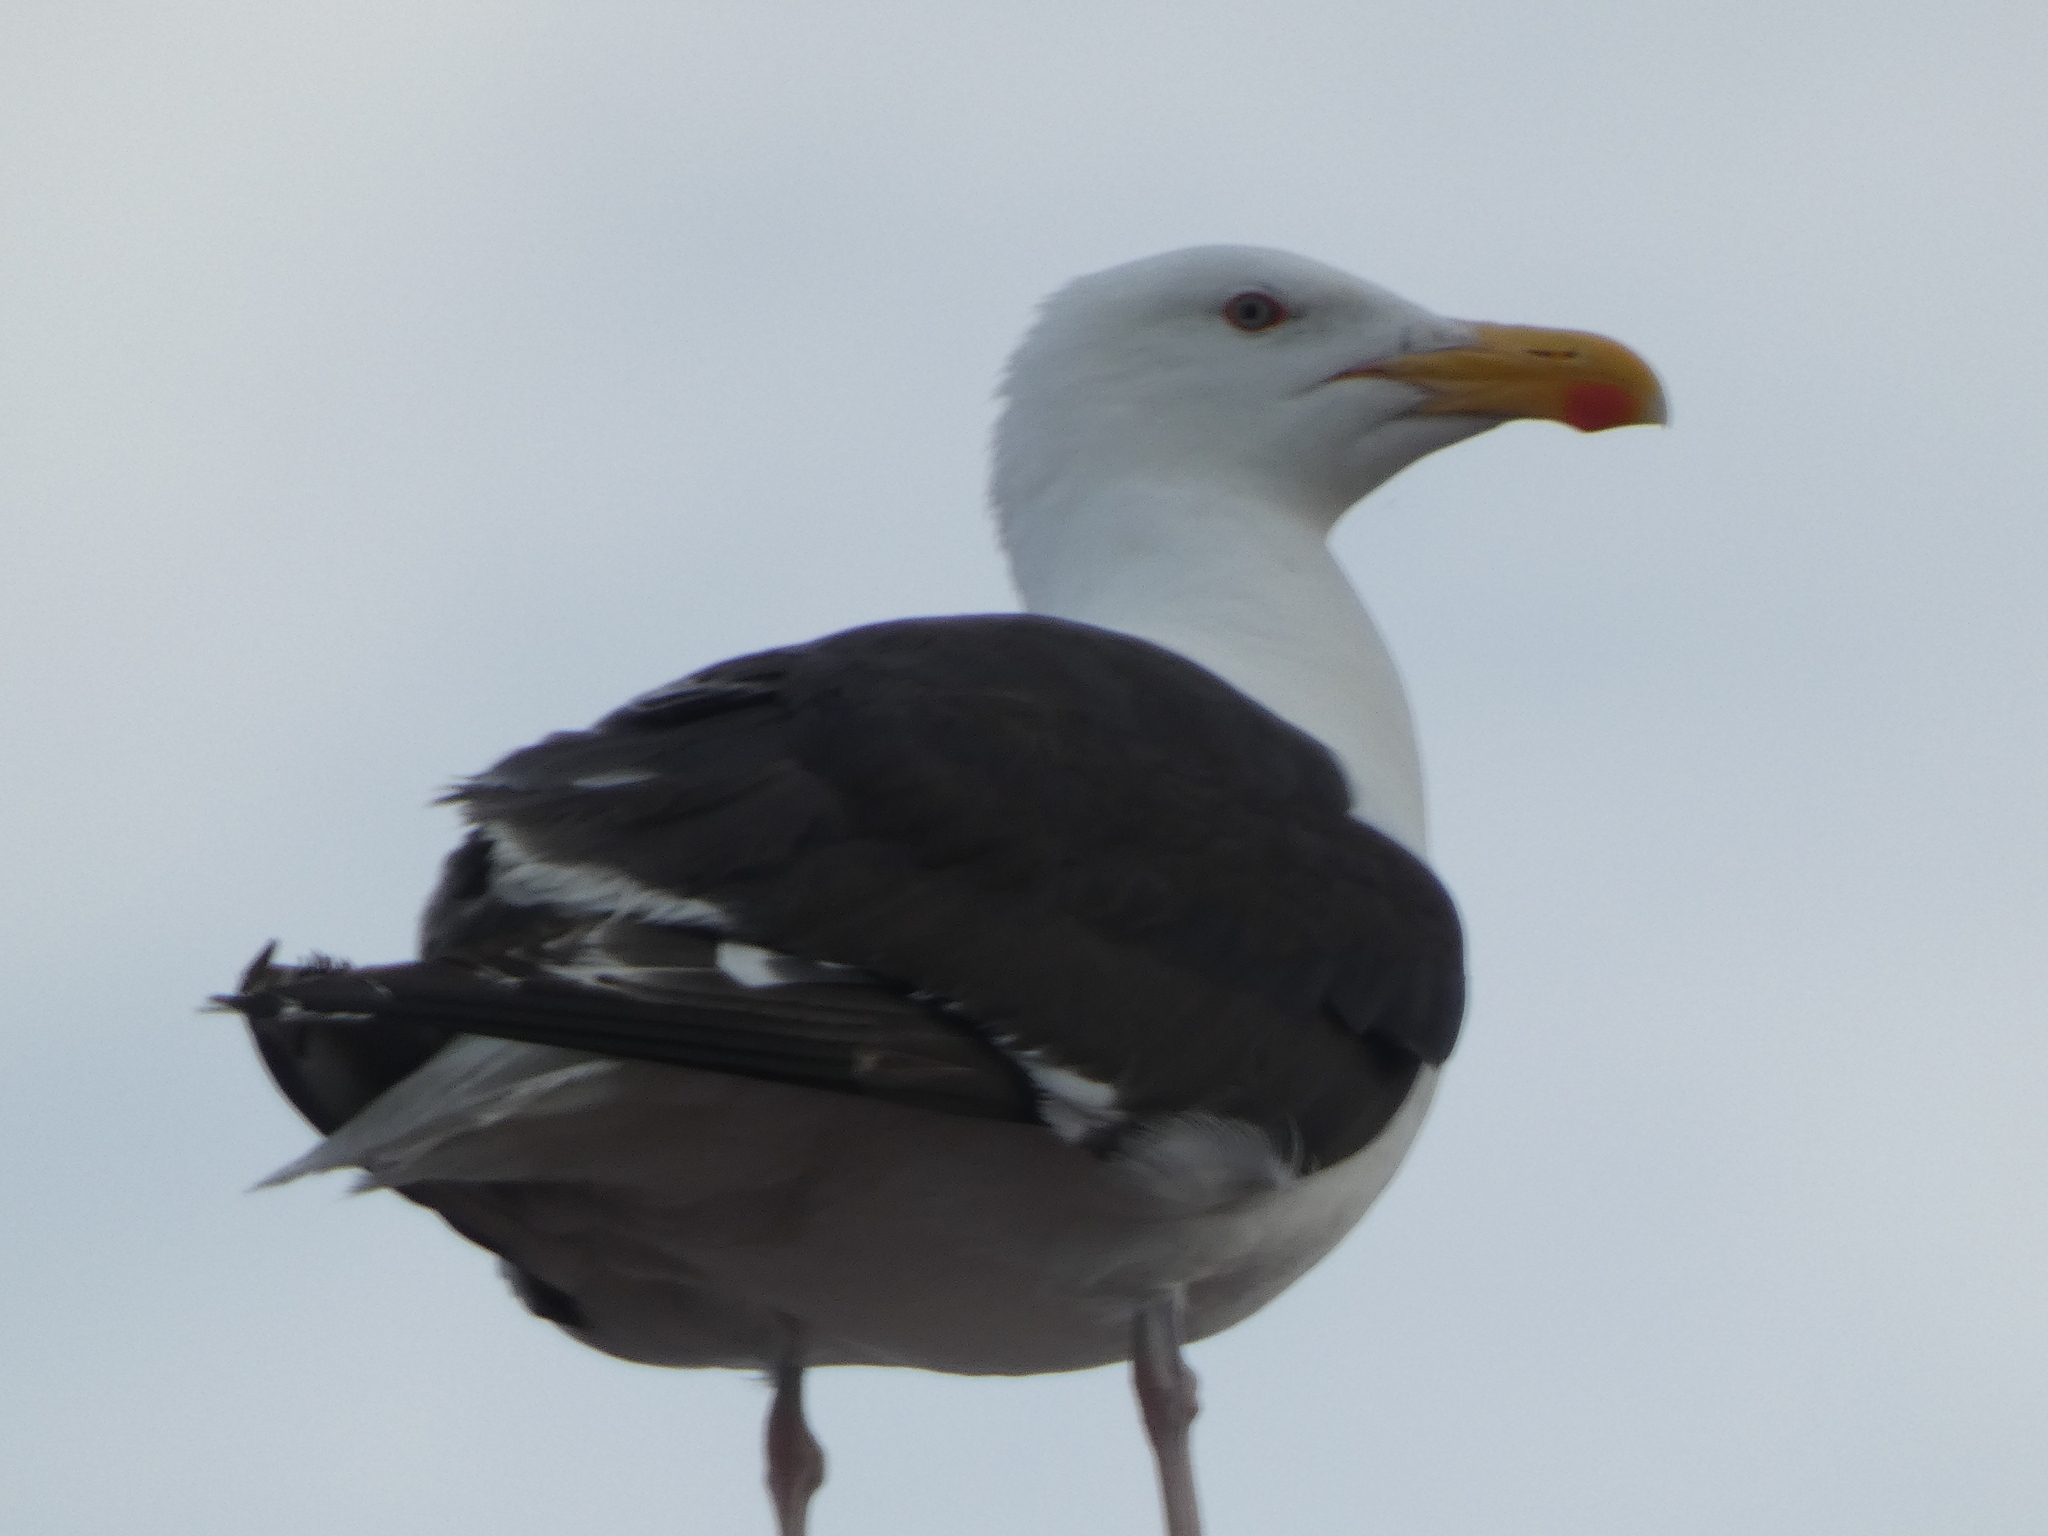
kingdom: Animalia
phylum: Chordata
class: Aves
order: Charadriiformes
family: Laridae
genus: Larus
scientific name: Larus marinus
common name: Great black-backed gull
